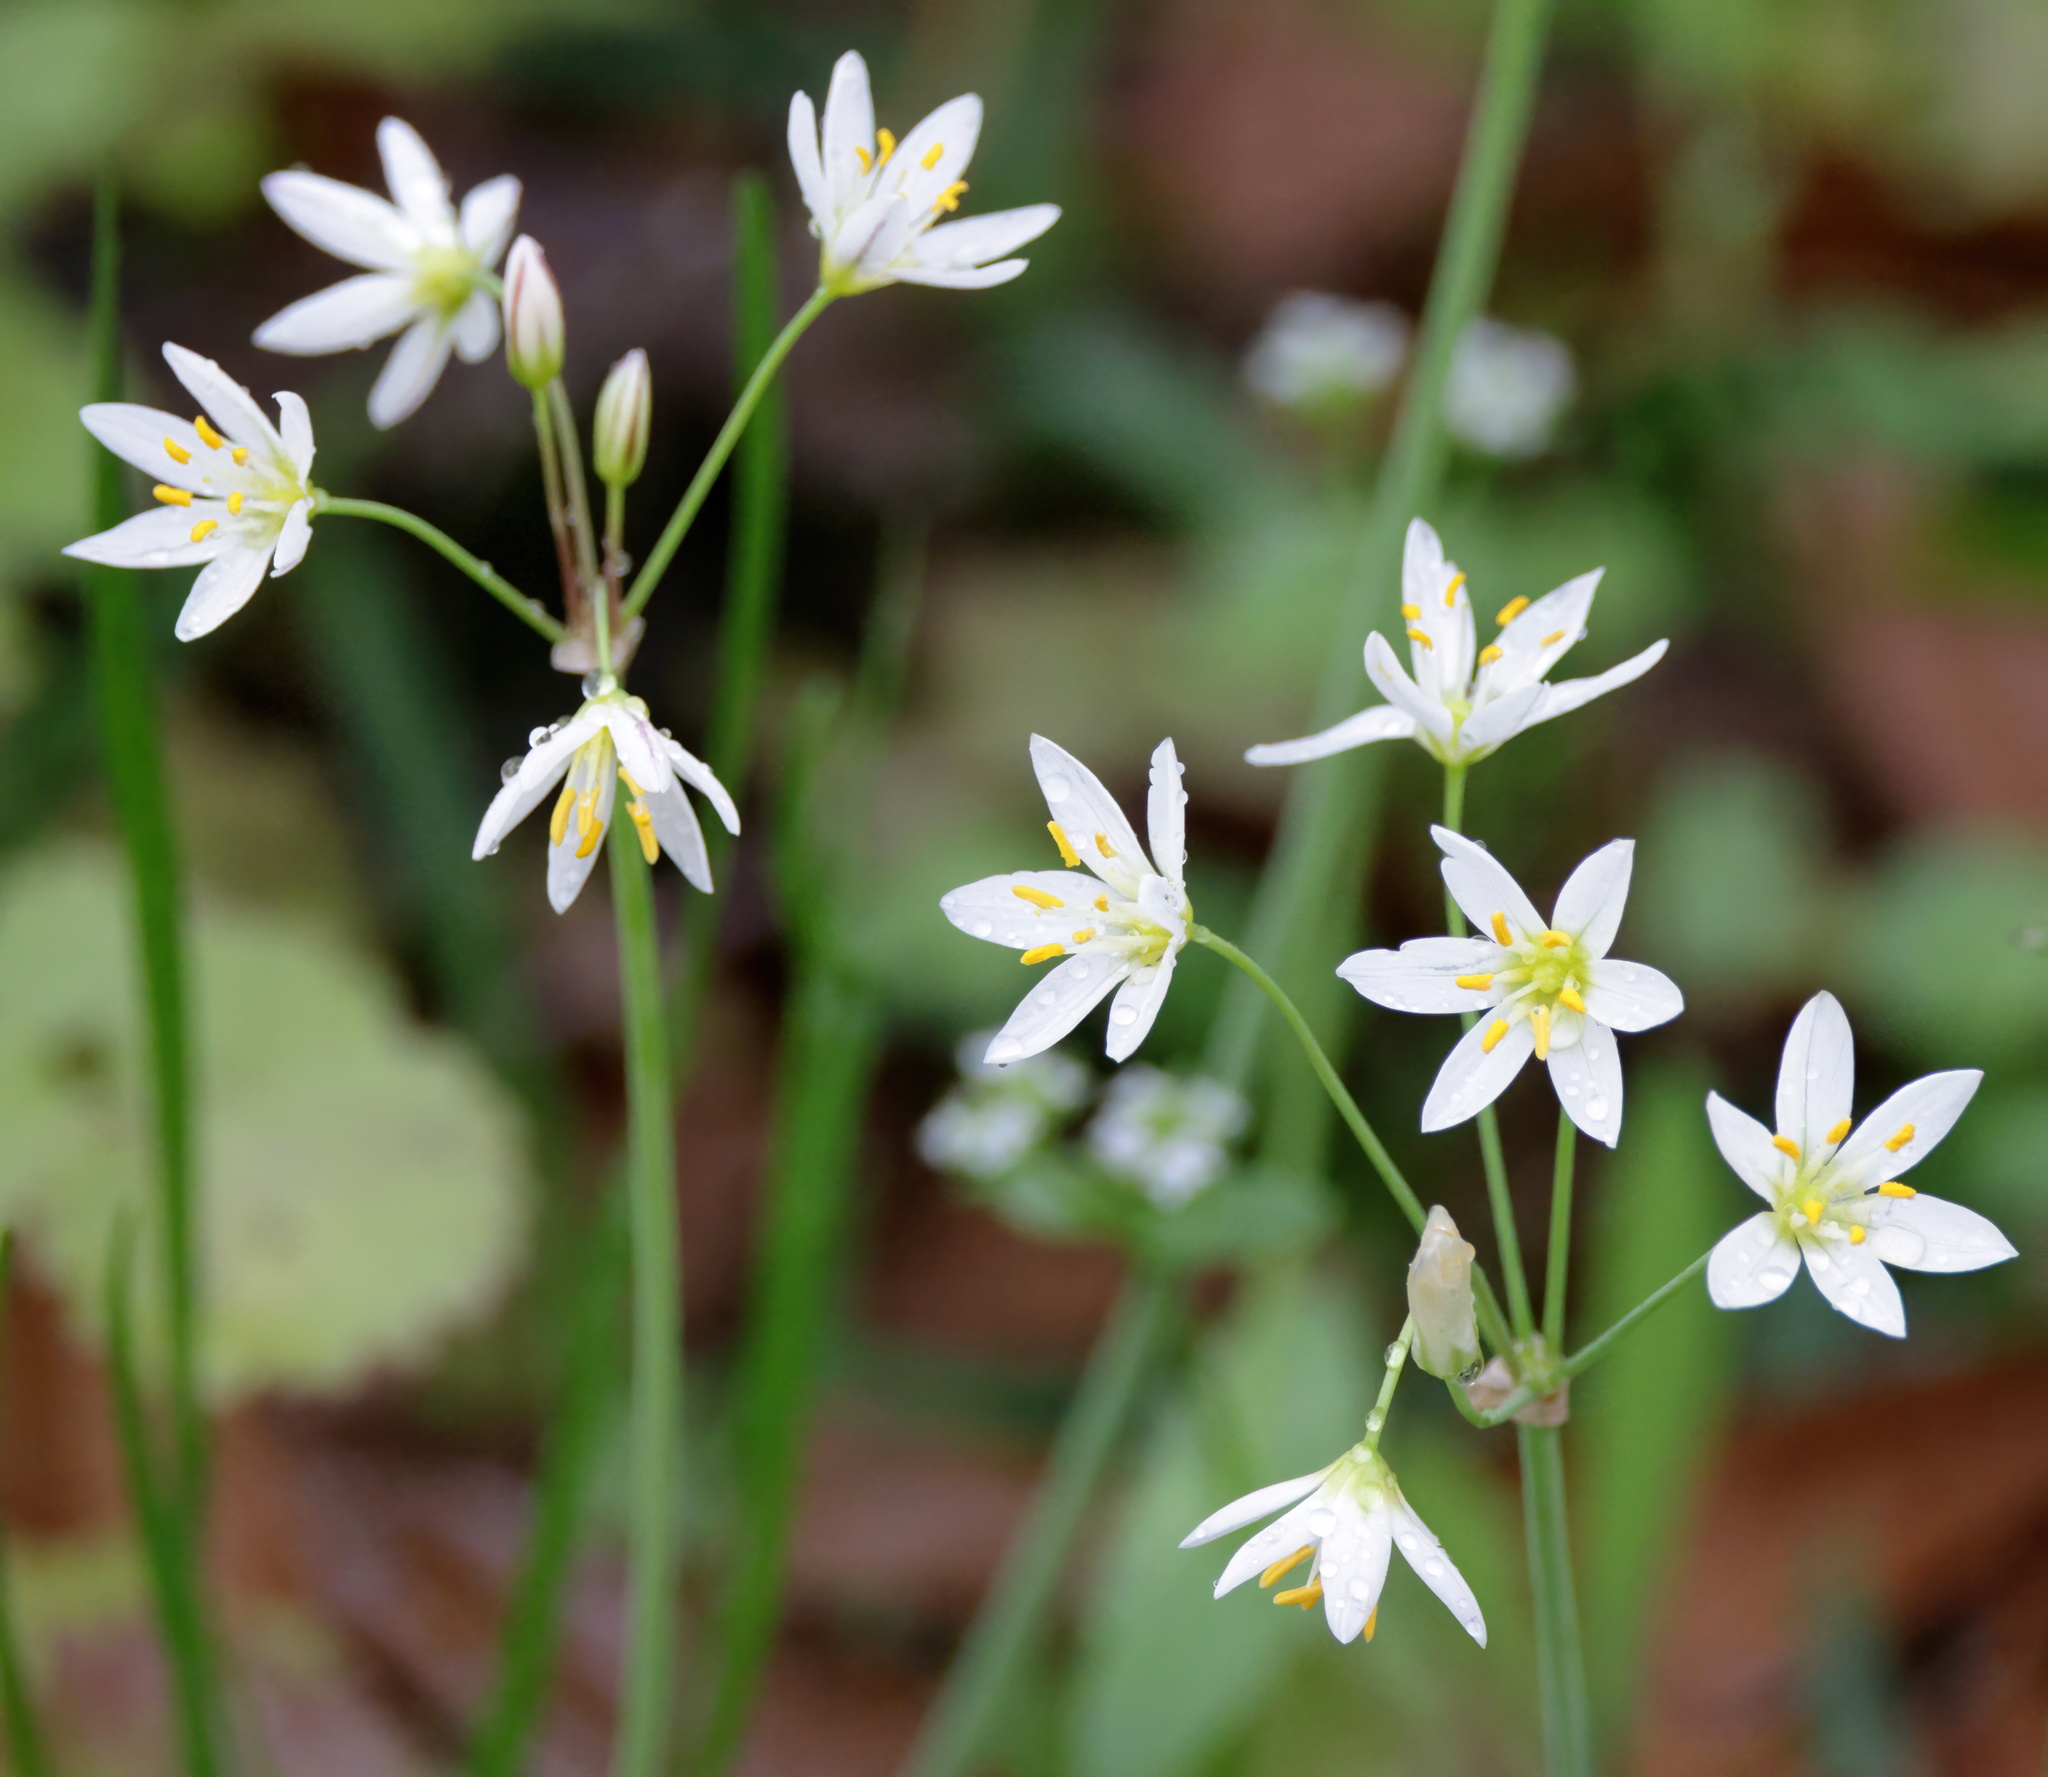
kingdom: Plantae
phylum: Tracheophyta
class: Liliopsida
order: Asparagales
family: Amaryllidaceae
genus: Nothoscordum
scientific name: Nothoscordum bivalve
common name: Crow-poison
